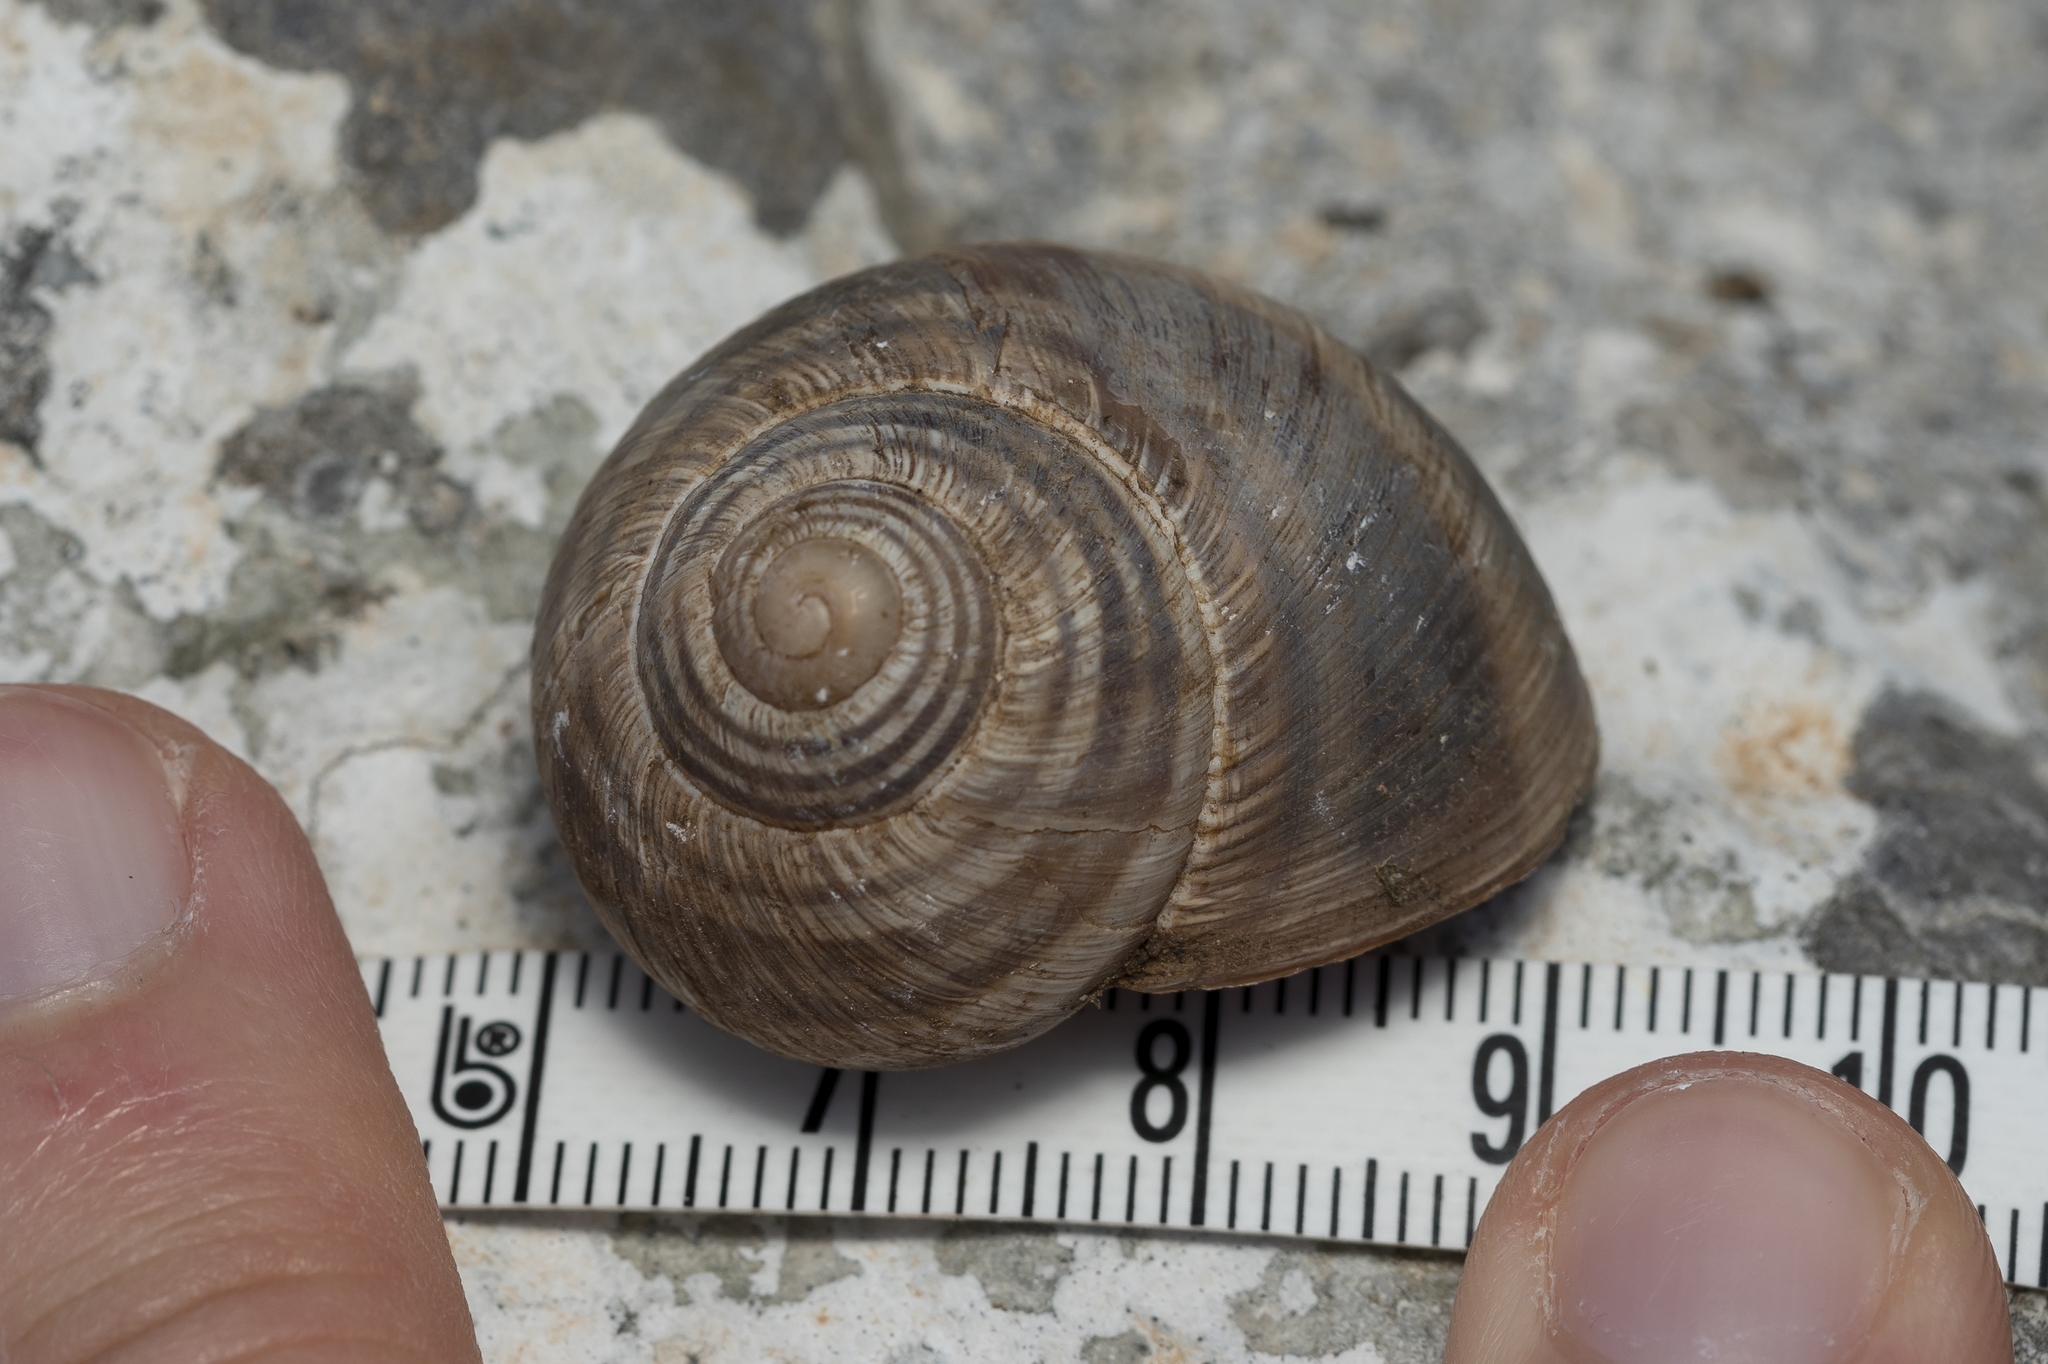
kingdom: Animalia
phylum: Mollusca
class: Gastropoda
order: Stylommatophora
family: Helicidae
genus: Helix
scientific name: Helix fathallae
